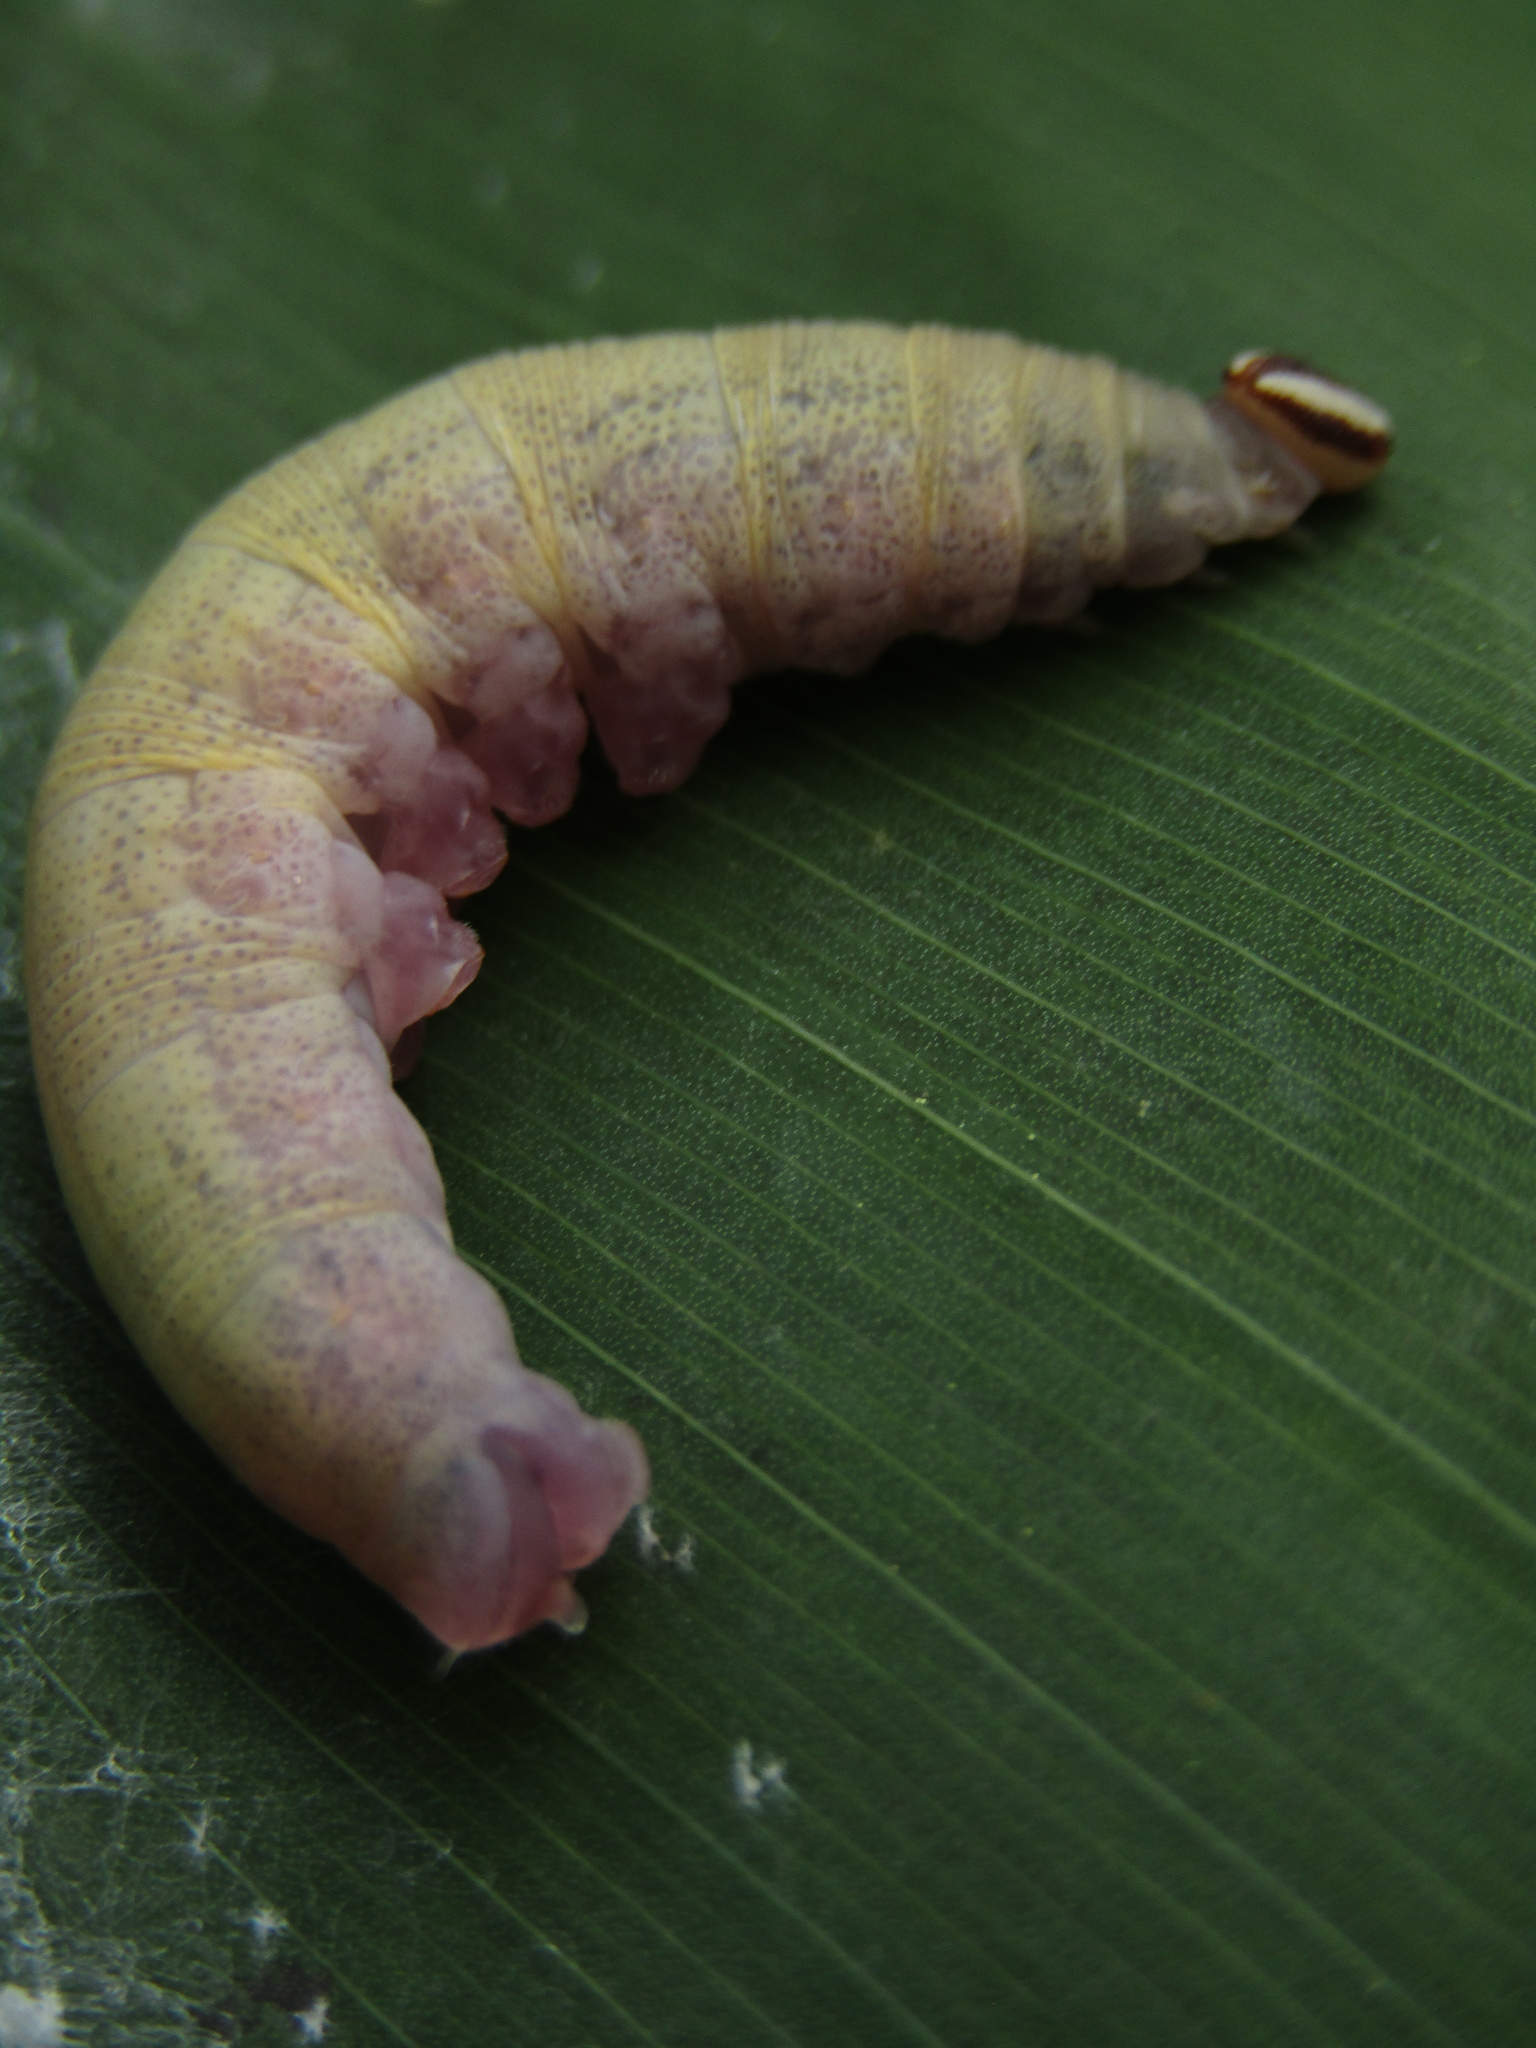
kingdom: Animalia
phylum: Arthropoda
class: Insecta
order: Lepidoptera
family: Hesperiidae
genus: Quinta
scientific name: Quinta cannae
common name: Canna skipper
